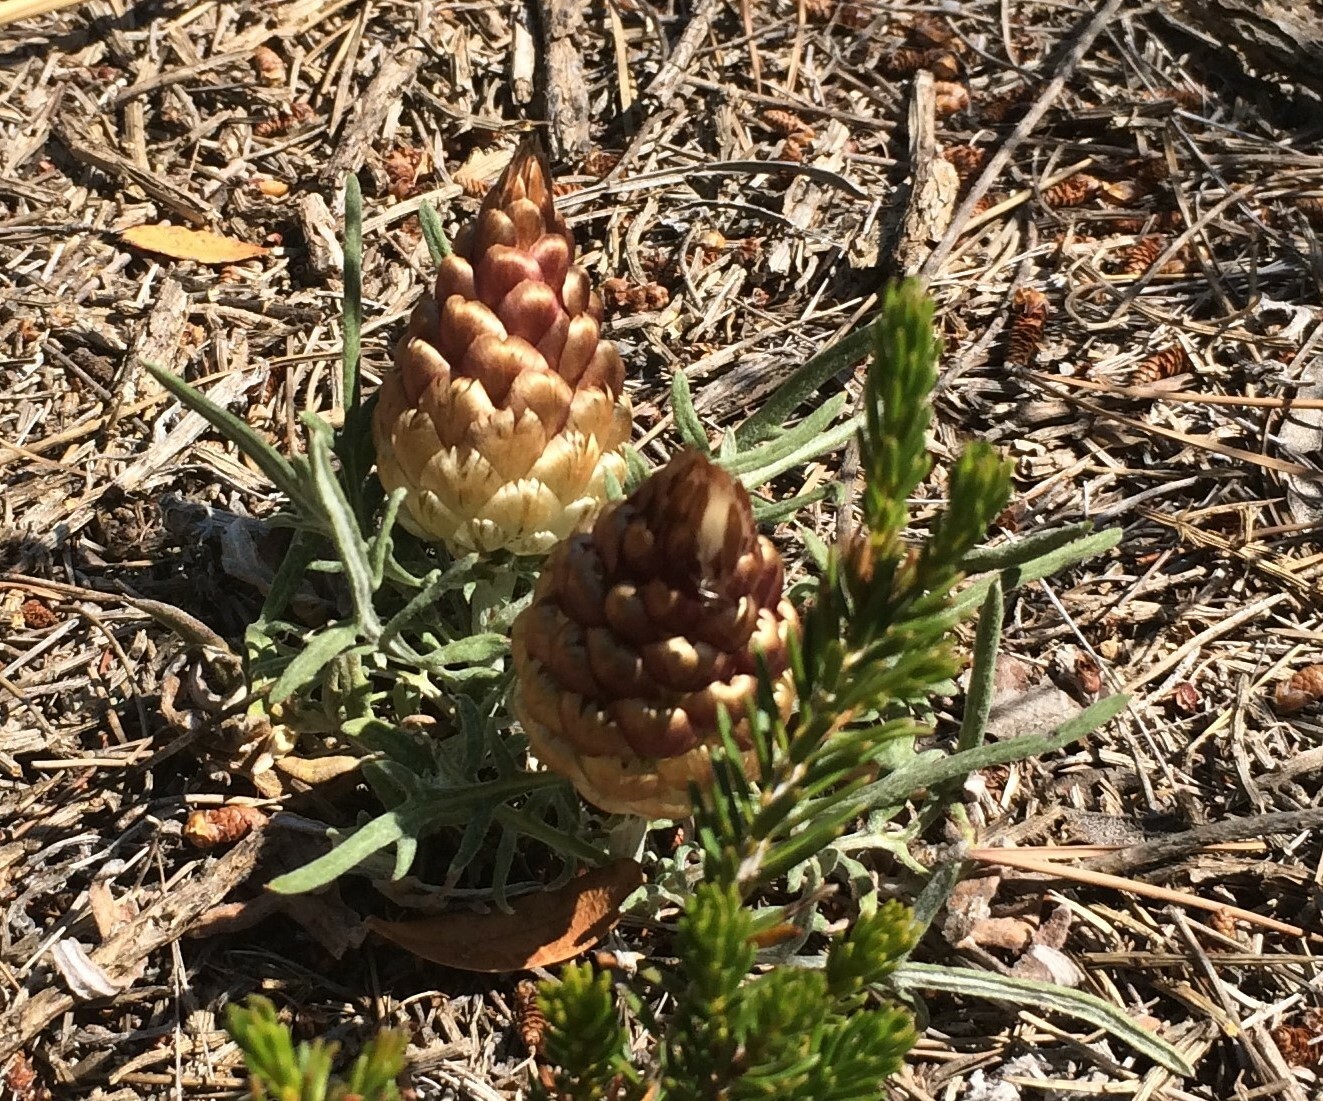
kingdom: Plantae
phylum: Tracheophyta
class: Magnoliopsida
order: Asterales
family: Asteraceae
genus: Leuzea
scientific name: Leuzea conifera
